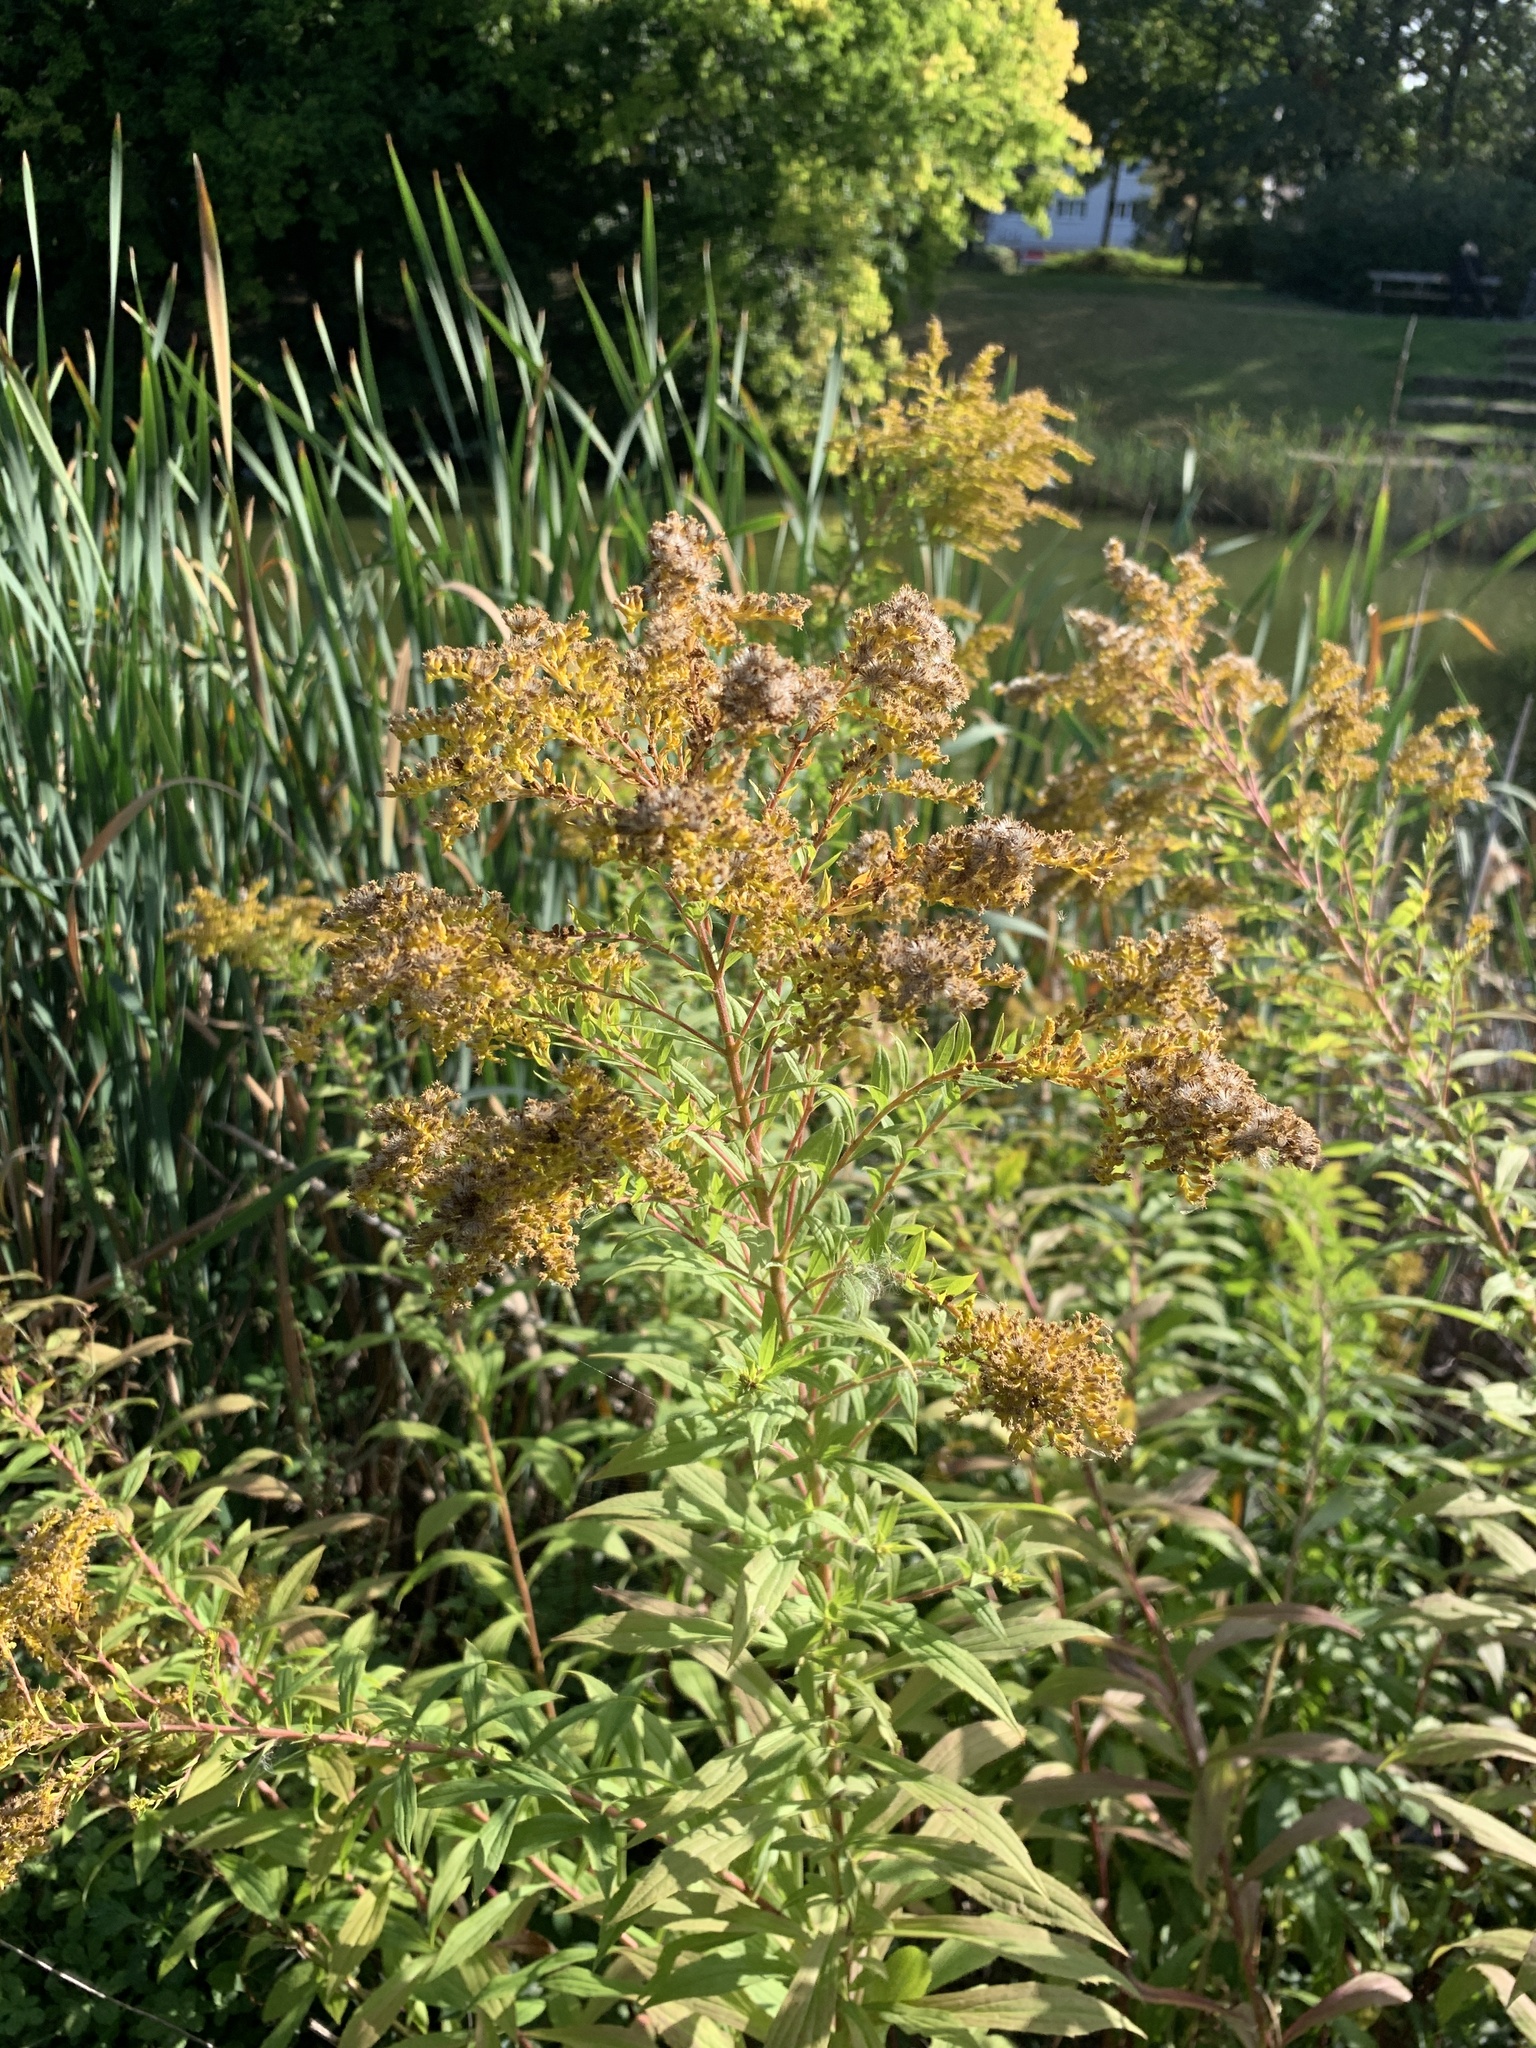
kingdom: Plantae
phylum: Tracheophyta
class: Magnoliopsida
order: Asterales
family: Asteraceae
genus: Solidago
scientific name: Solidago canadensis
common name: Canada goldenrod
